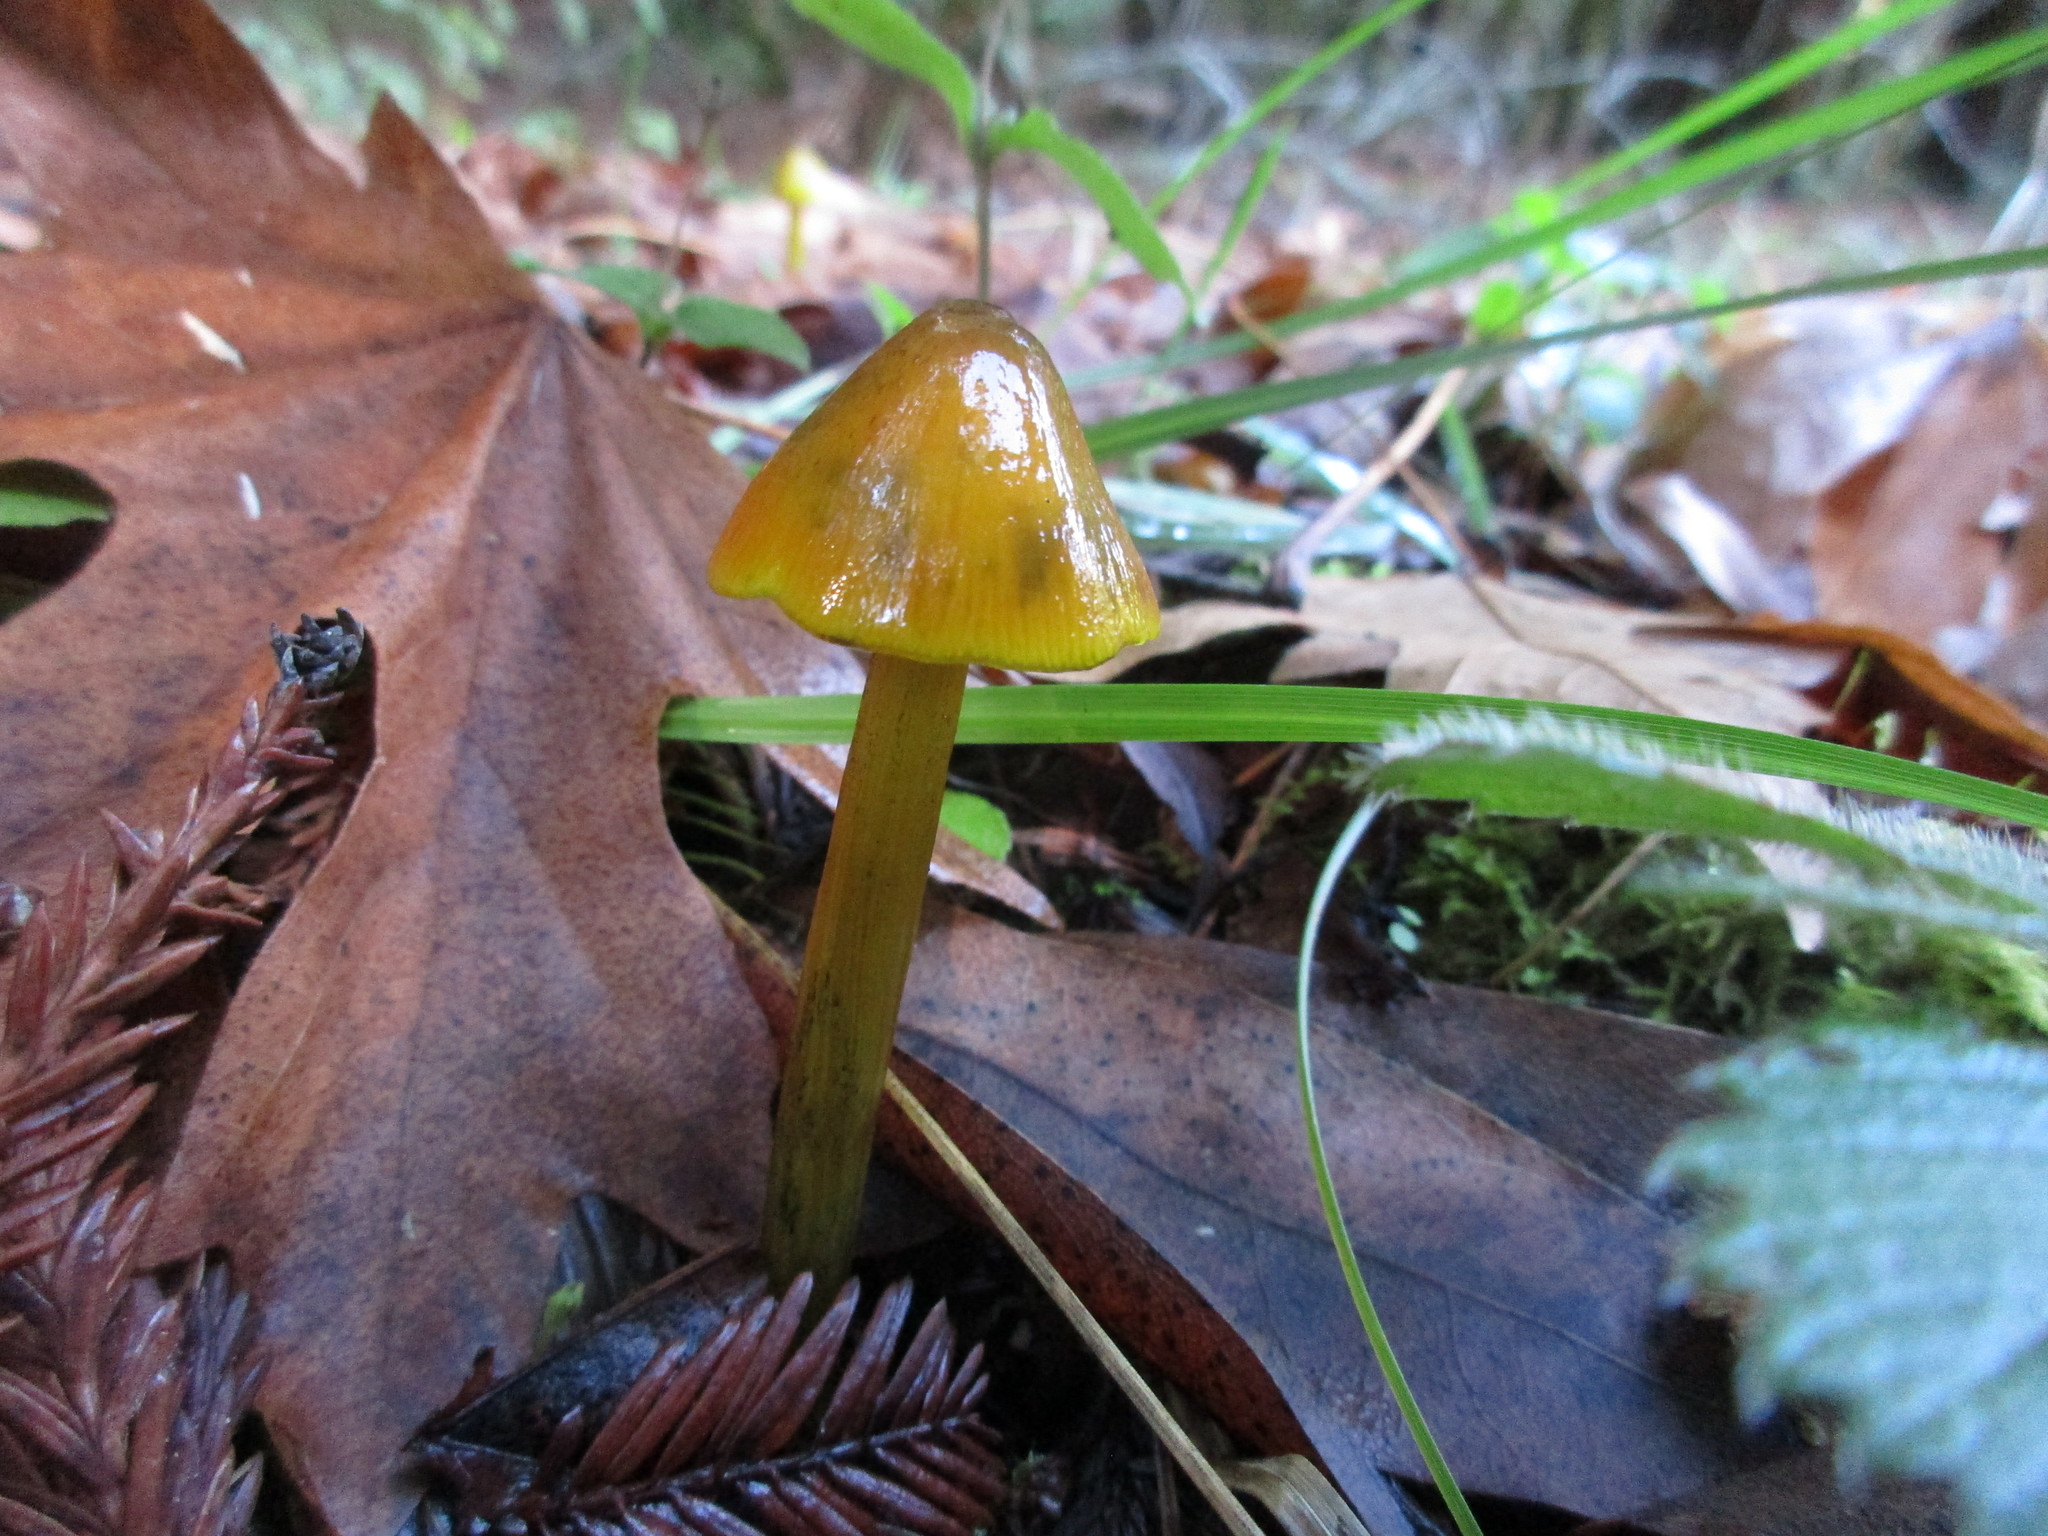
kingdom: Fungi
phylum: Basidiomycota
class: Agaricomycetes
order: Agaricales
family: Hygrophoraceae
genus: Hygrocybe
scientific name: Hygrocybe singeri
